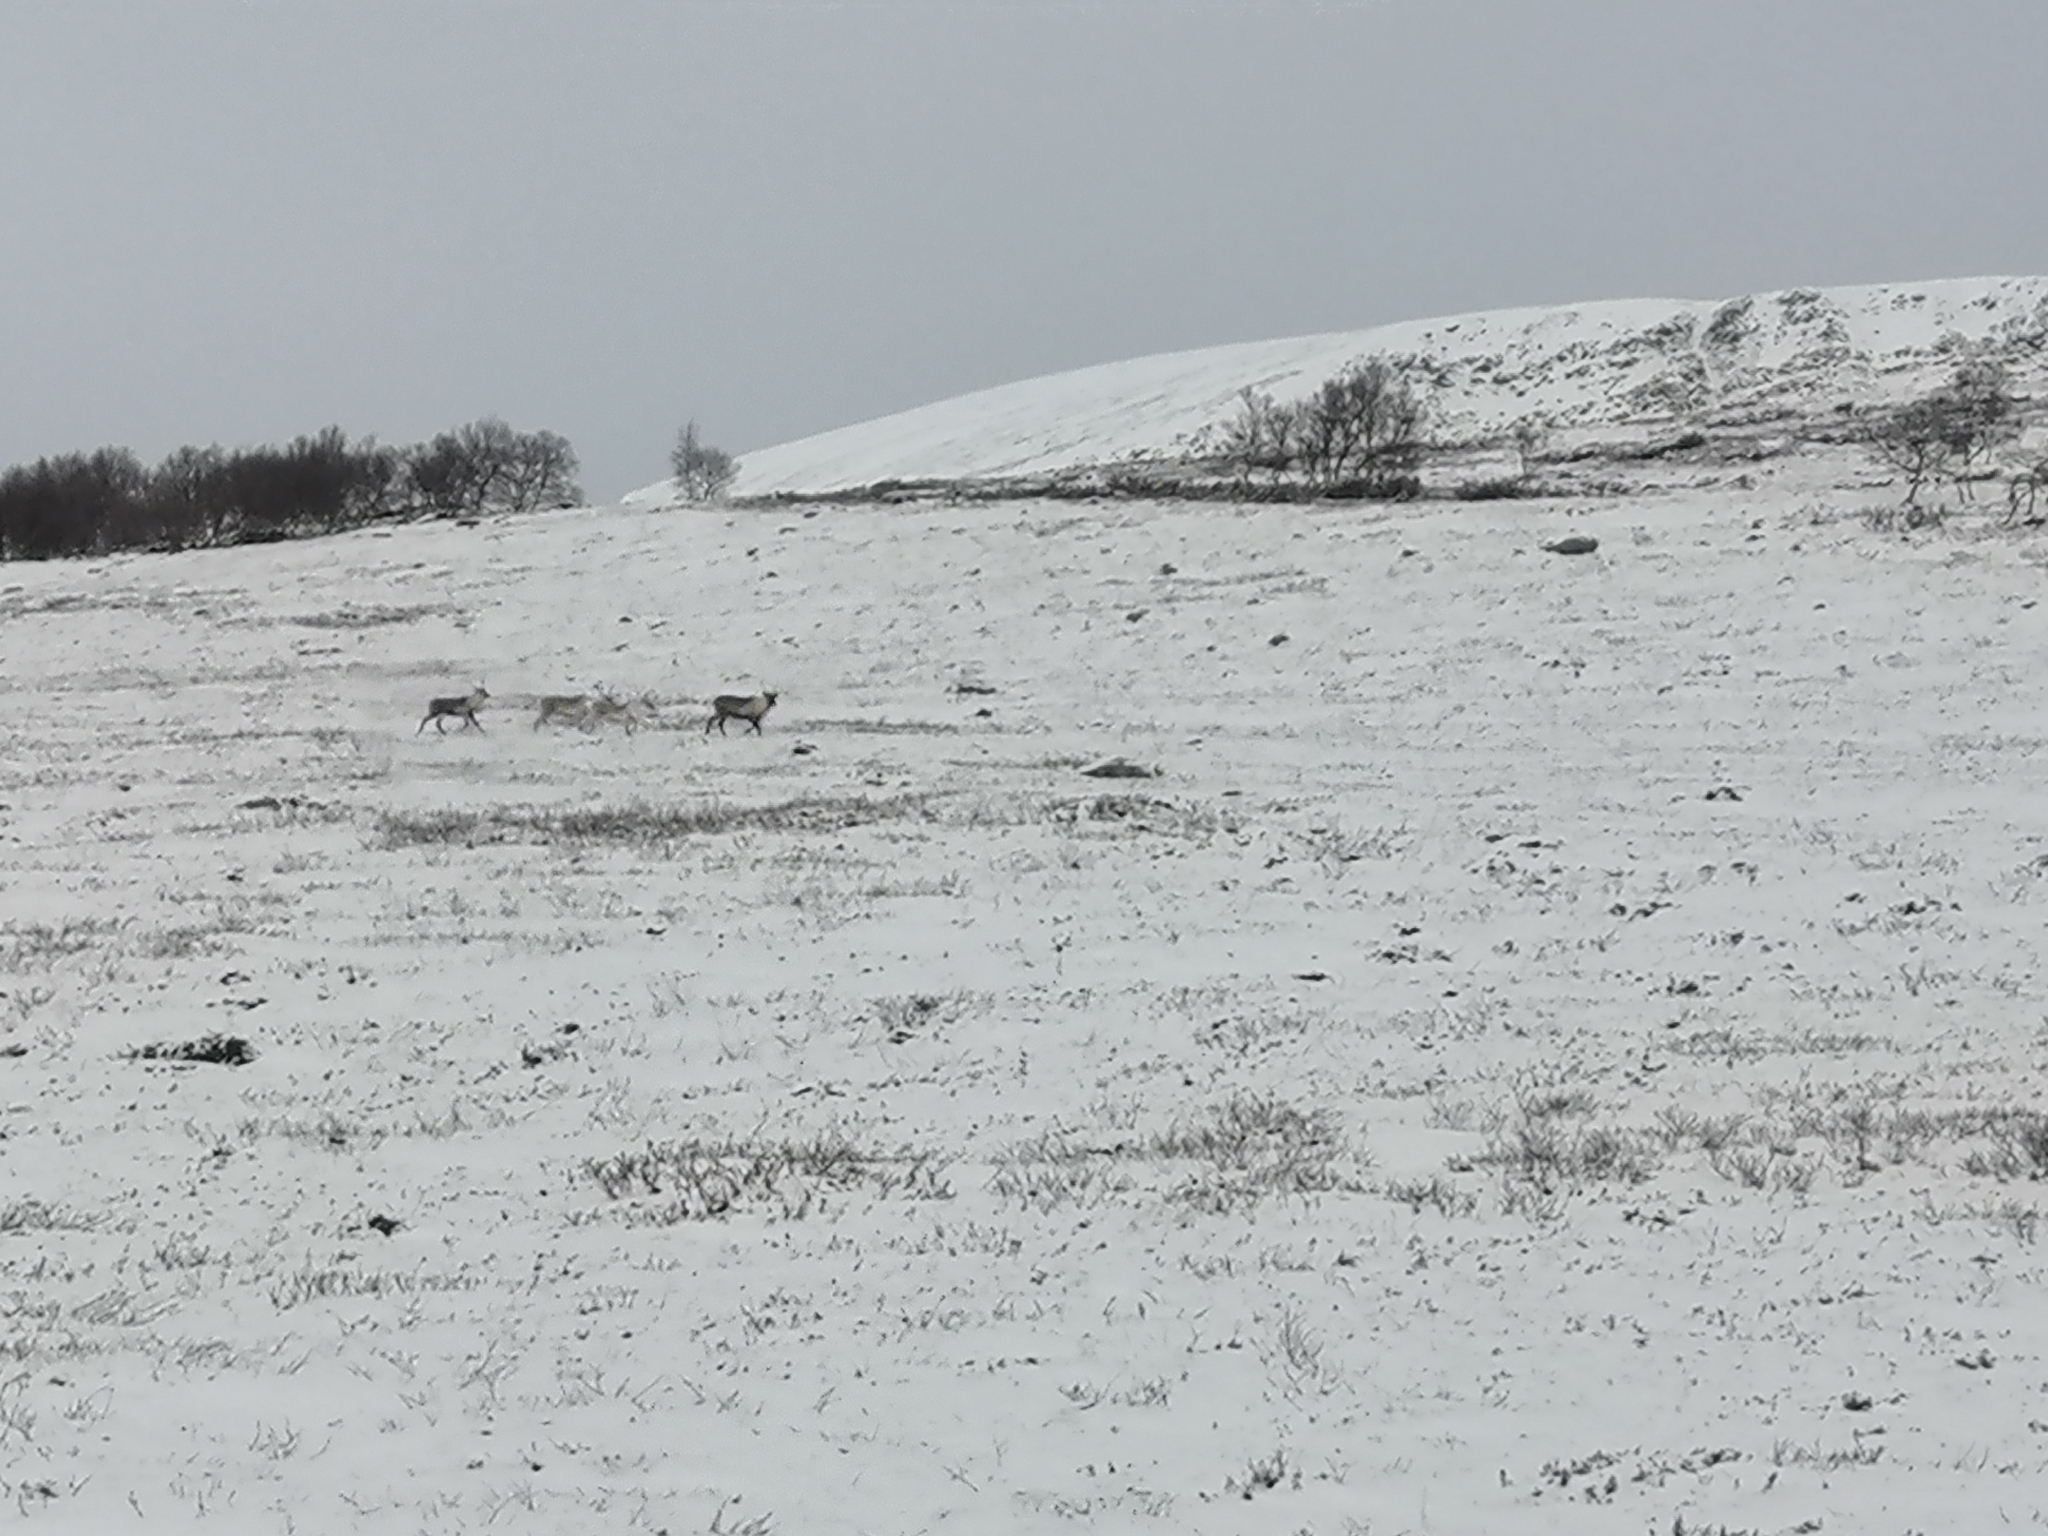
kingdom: Animalia
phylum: Chordata
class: Mammalia
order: Artiodactyla
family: Cervidae
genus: Rangifer
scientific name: Rangifer tarandus
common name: Reindeer
